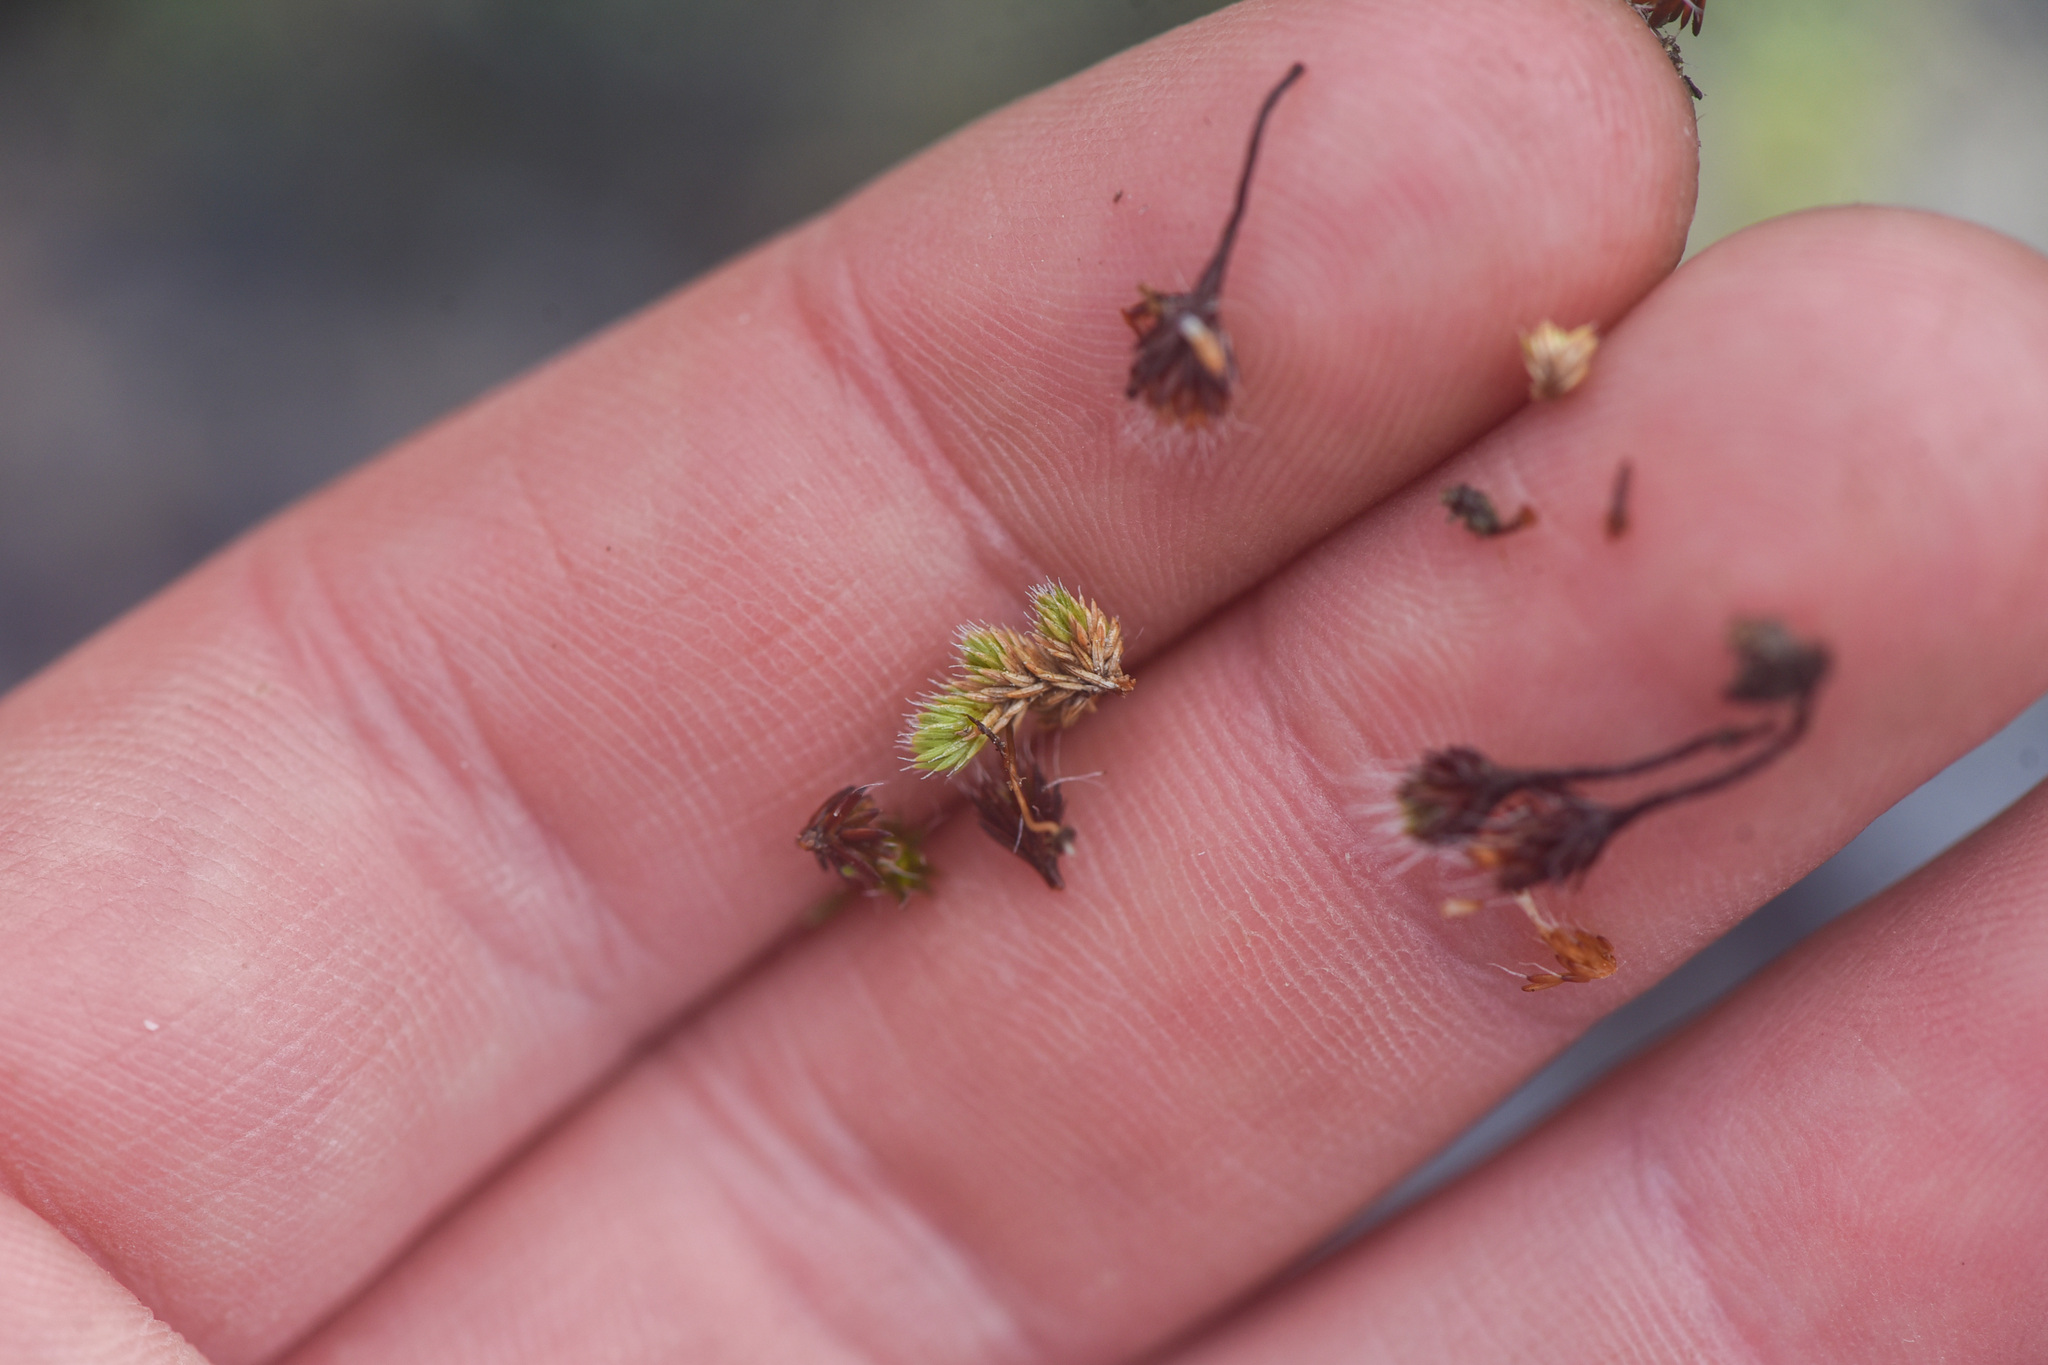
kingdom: Plantae
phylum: Bryophyta
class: Polytrichopsida
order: Polytrichales
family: Polytrichaceae
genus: Polytrichum
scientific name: Polytrichum piliferum
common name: Bristly haircap
